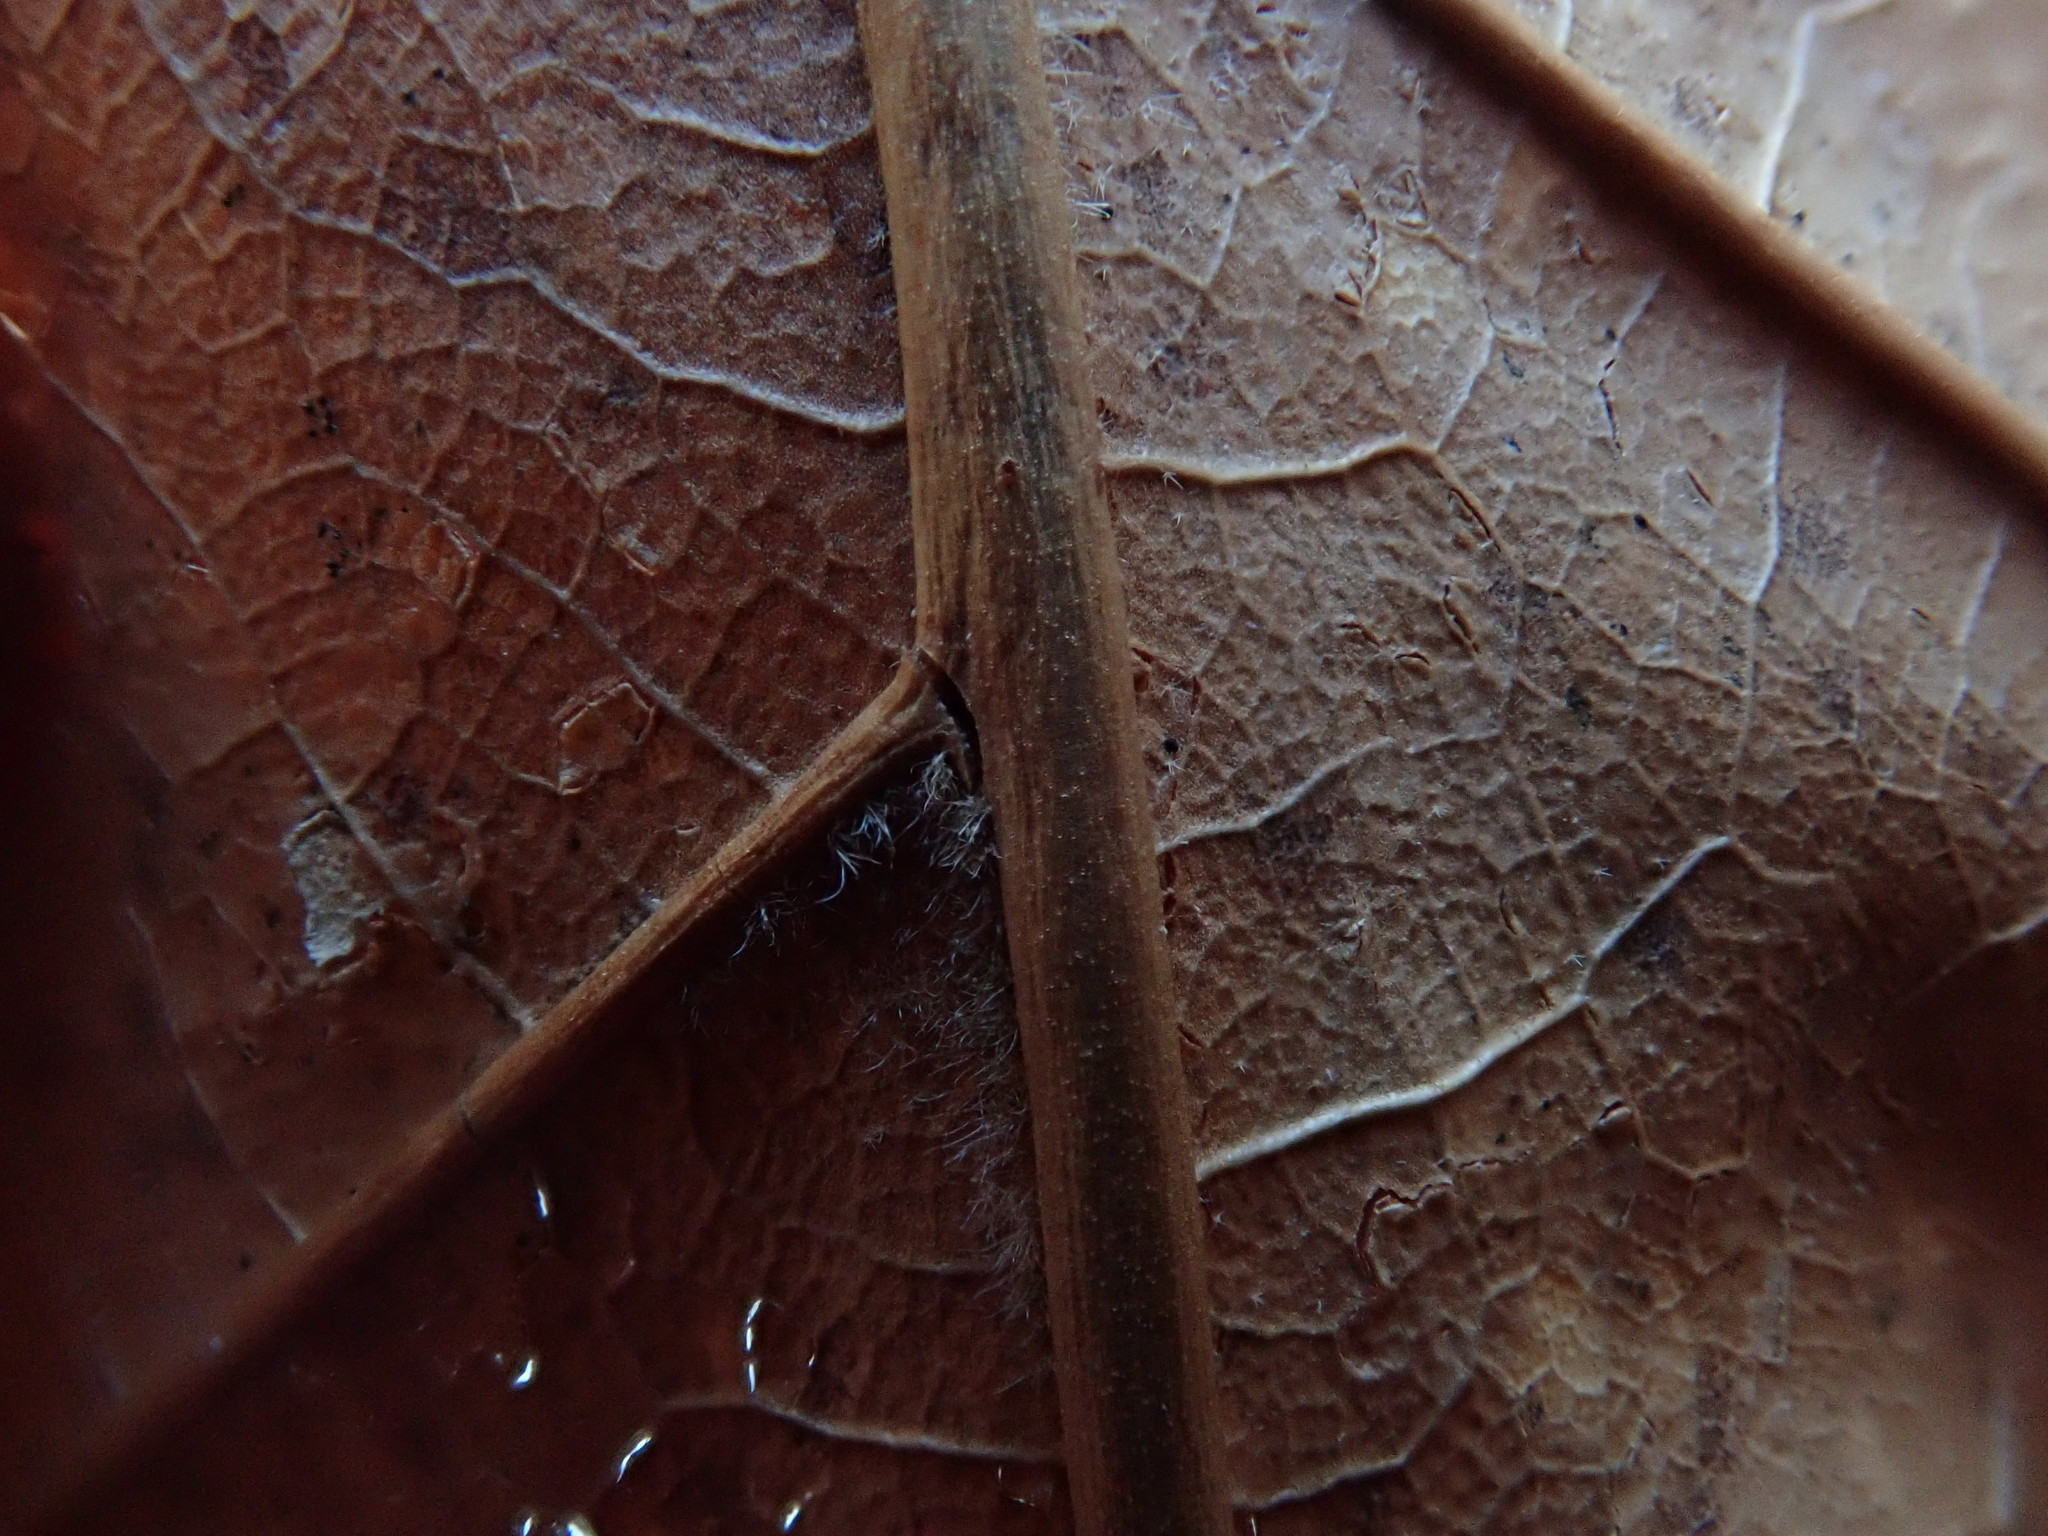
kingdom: Plantae
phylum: Tracheophyta
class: Magnoliopsida
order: Fagales
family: Fagaceae
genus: Quercus
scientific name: Quercus velutina
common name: Black oak
